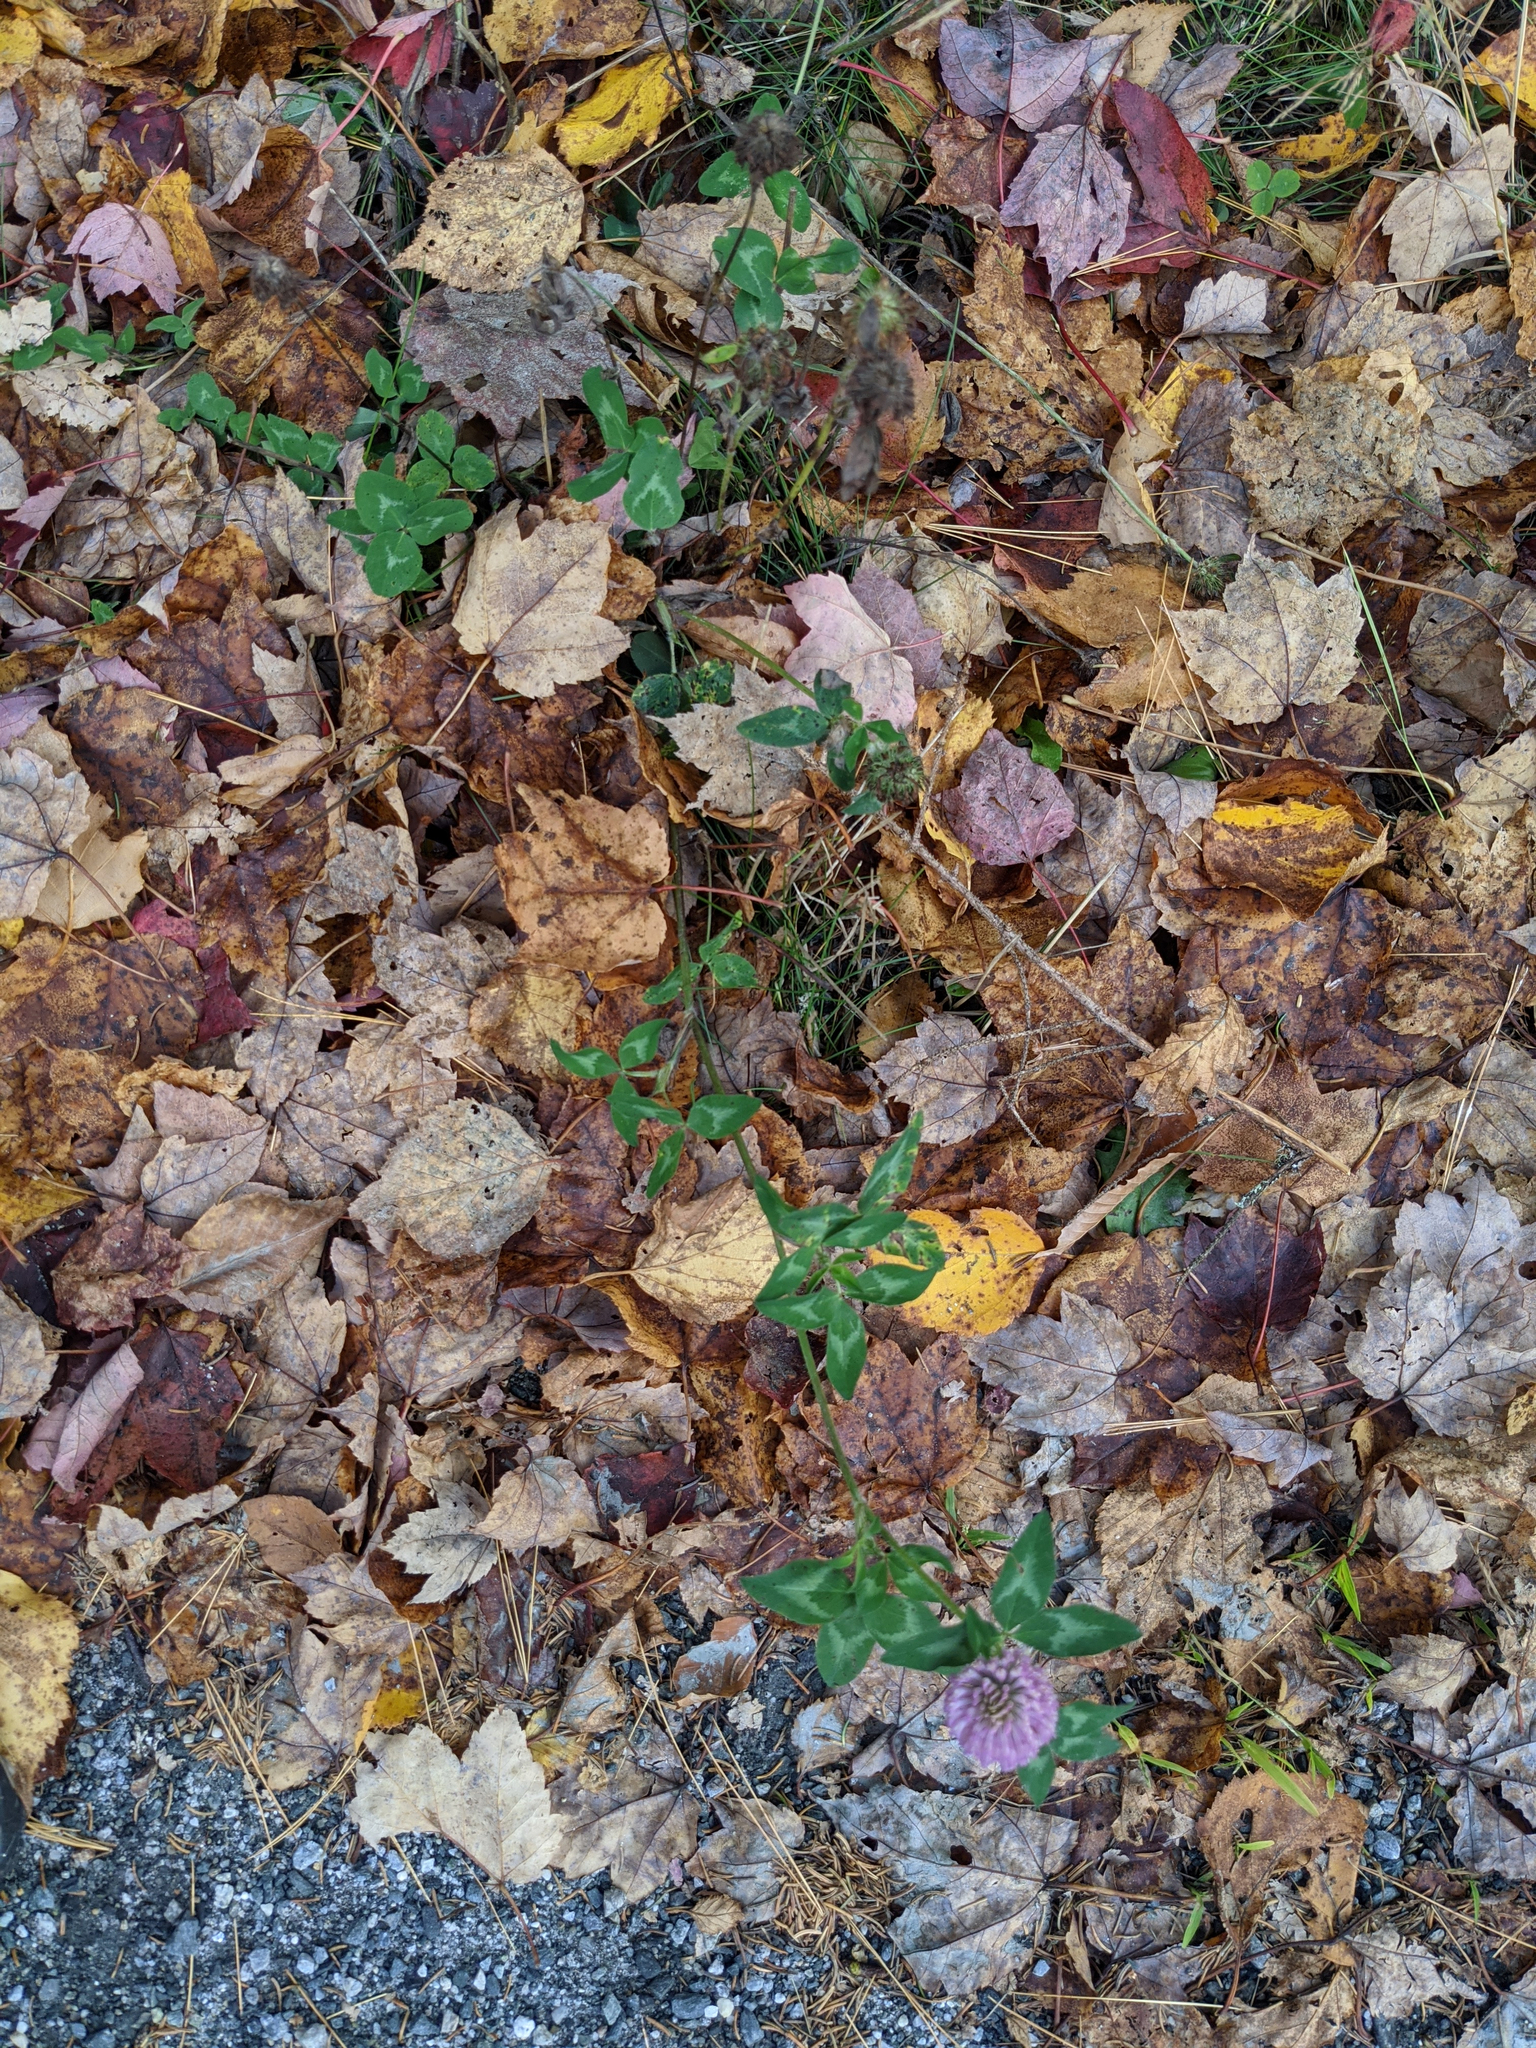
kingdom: Plantae
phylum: Tracheophyta
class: Magnoliopsida
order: Fabales
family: Fabaceae
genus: Trifolium
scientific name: Trifolium pratense
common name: Red clover
